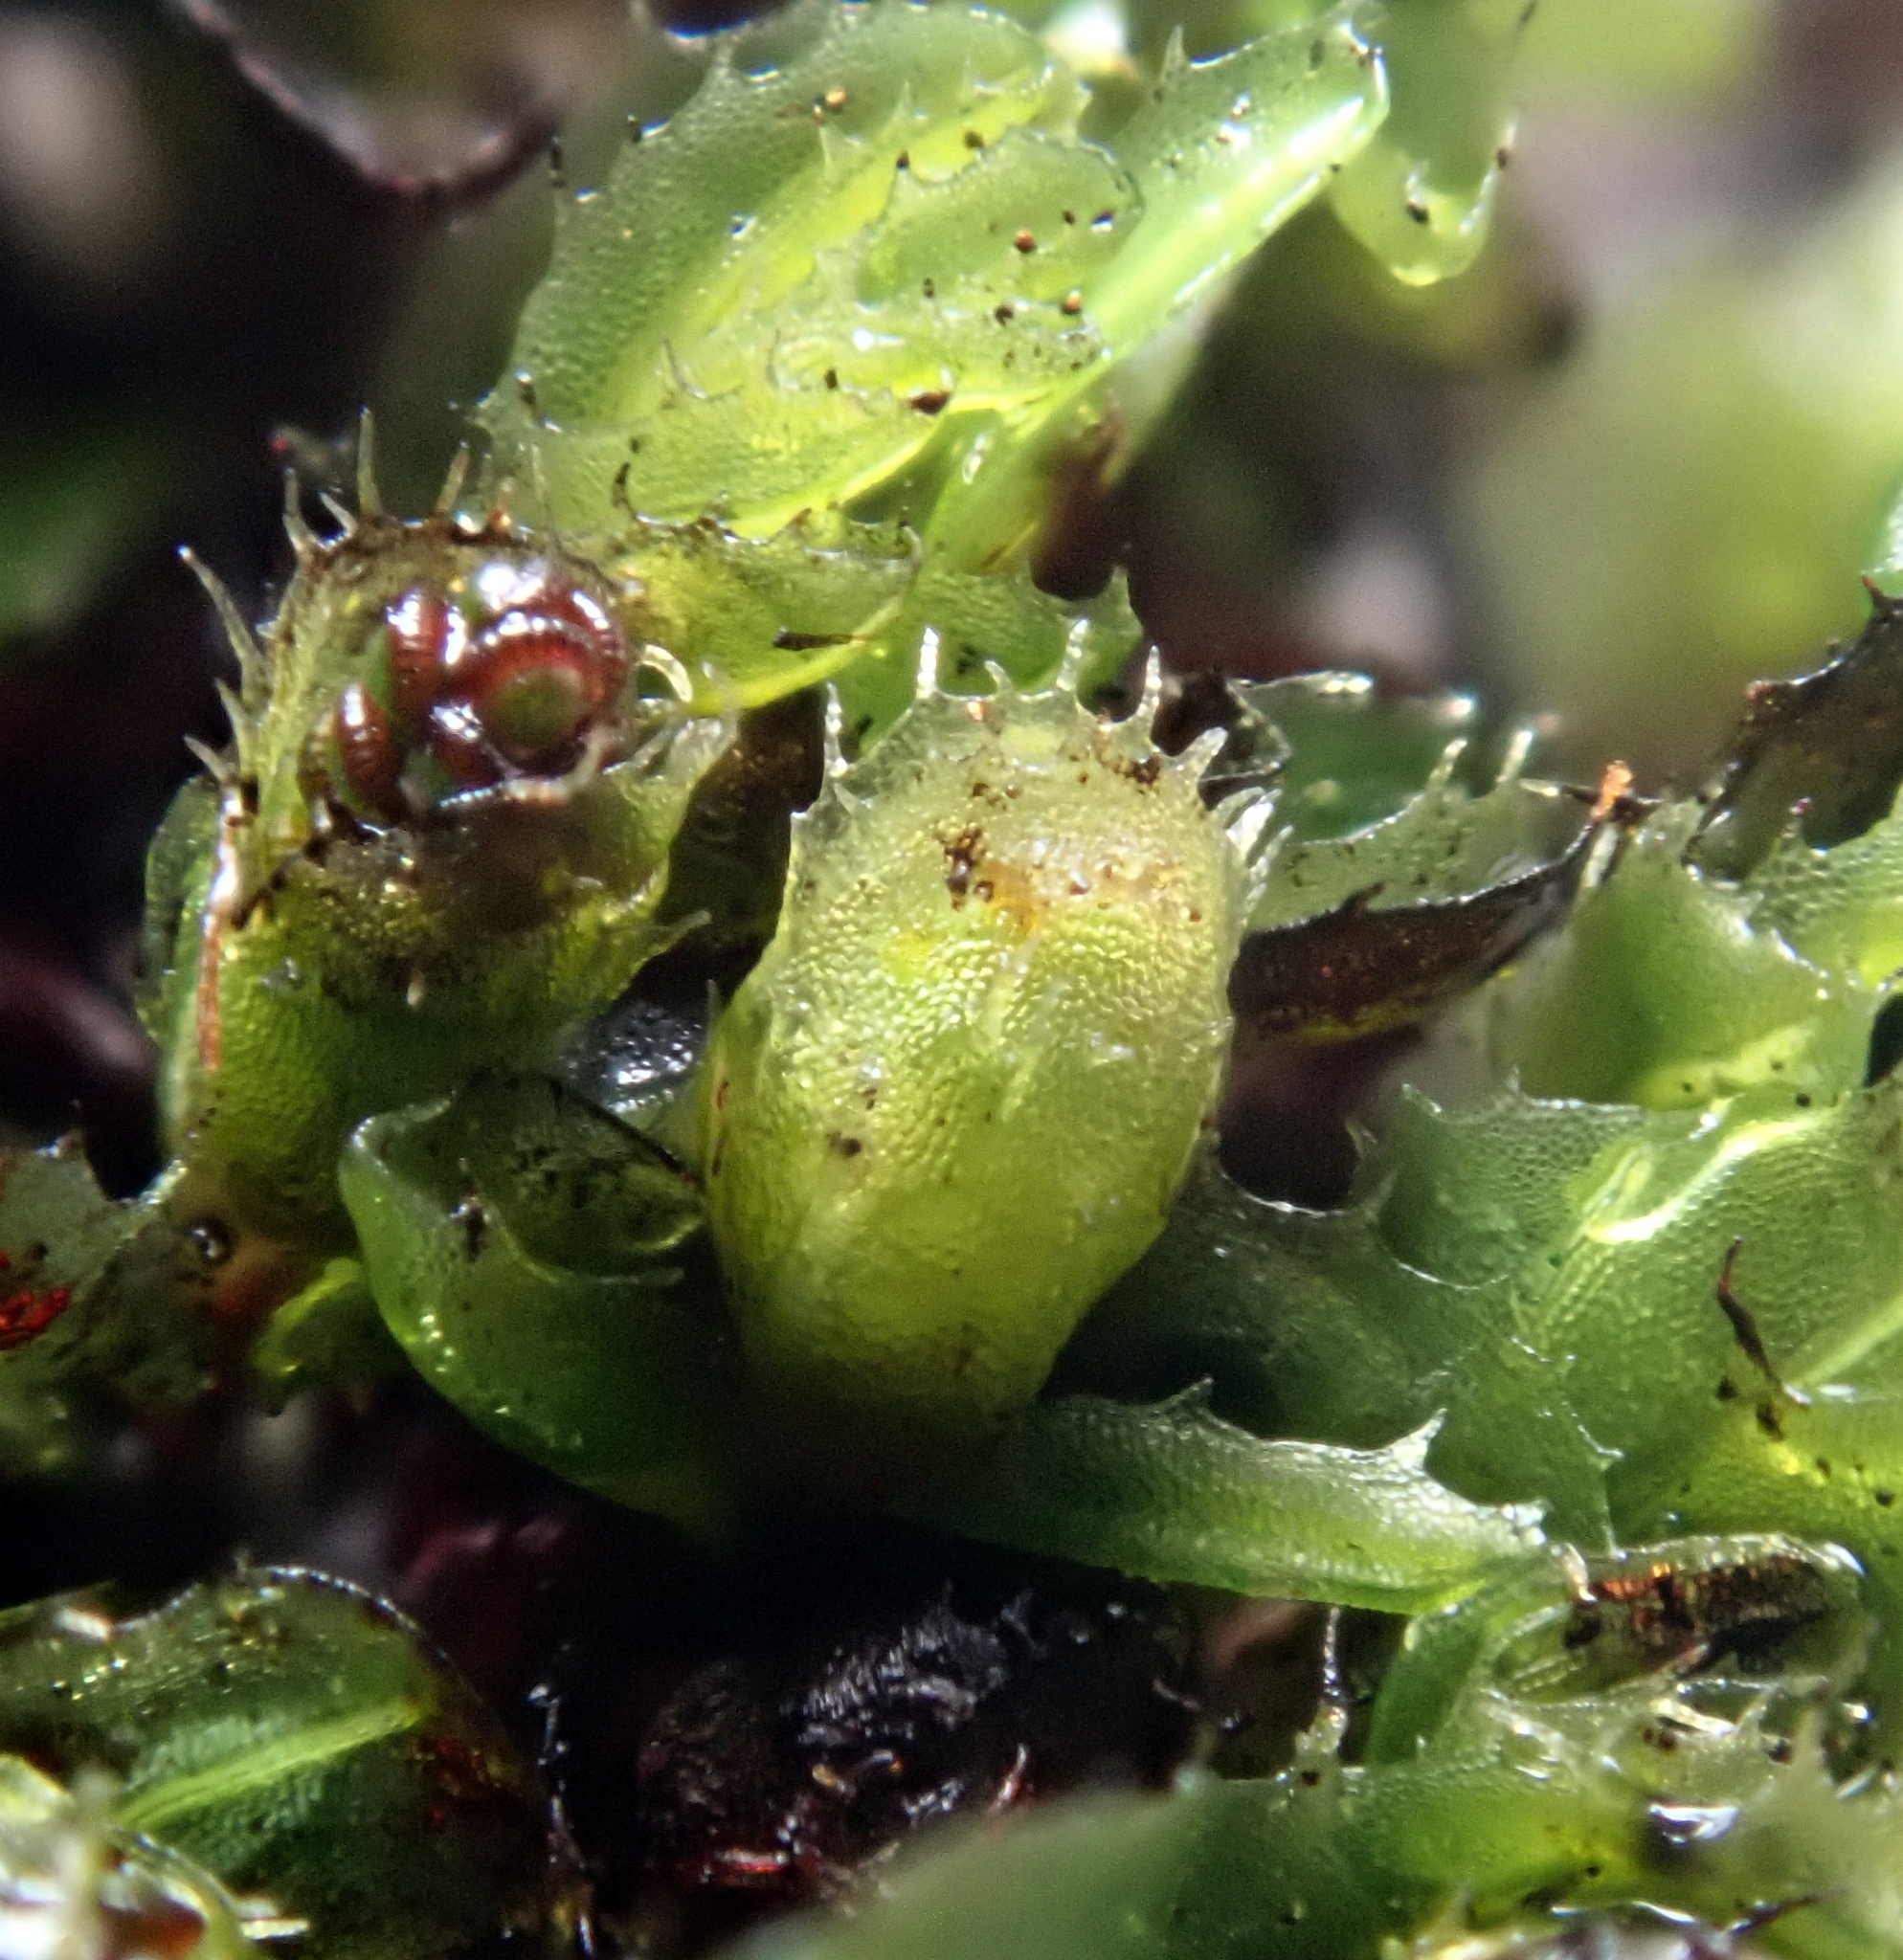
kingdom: Plantae
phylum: Tracheophyta
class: Polypodiopsida
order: Hymenophyllales
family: Hymenophyllaceae
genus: Hymenophyllum
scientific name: Hymenophyllum minimum
